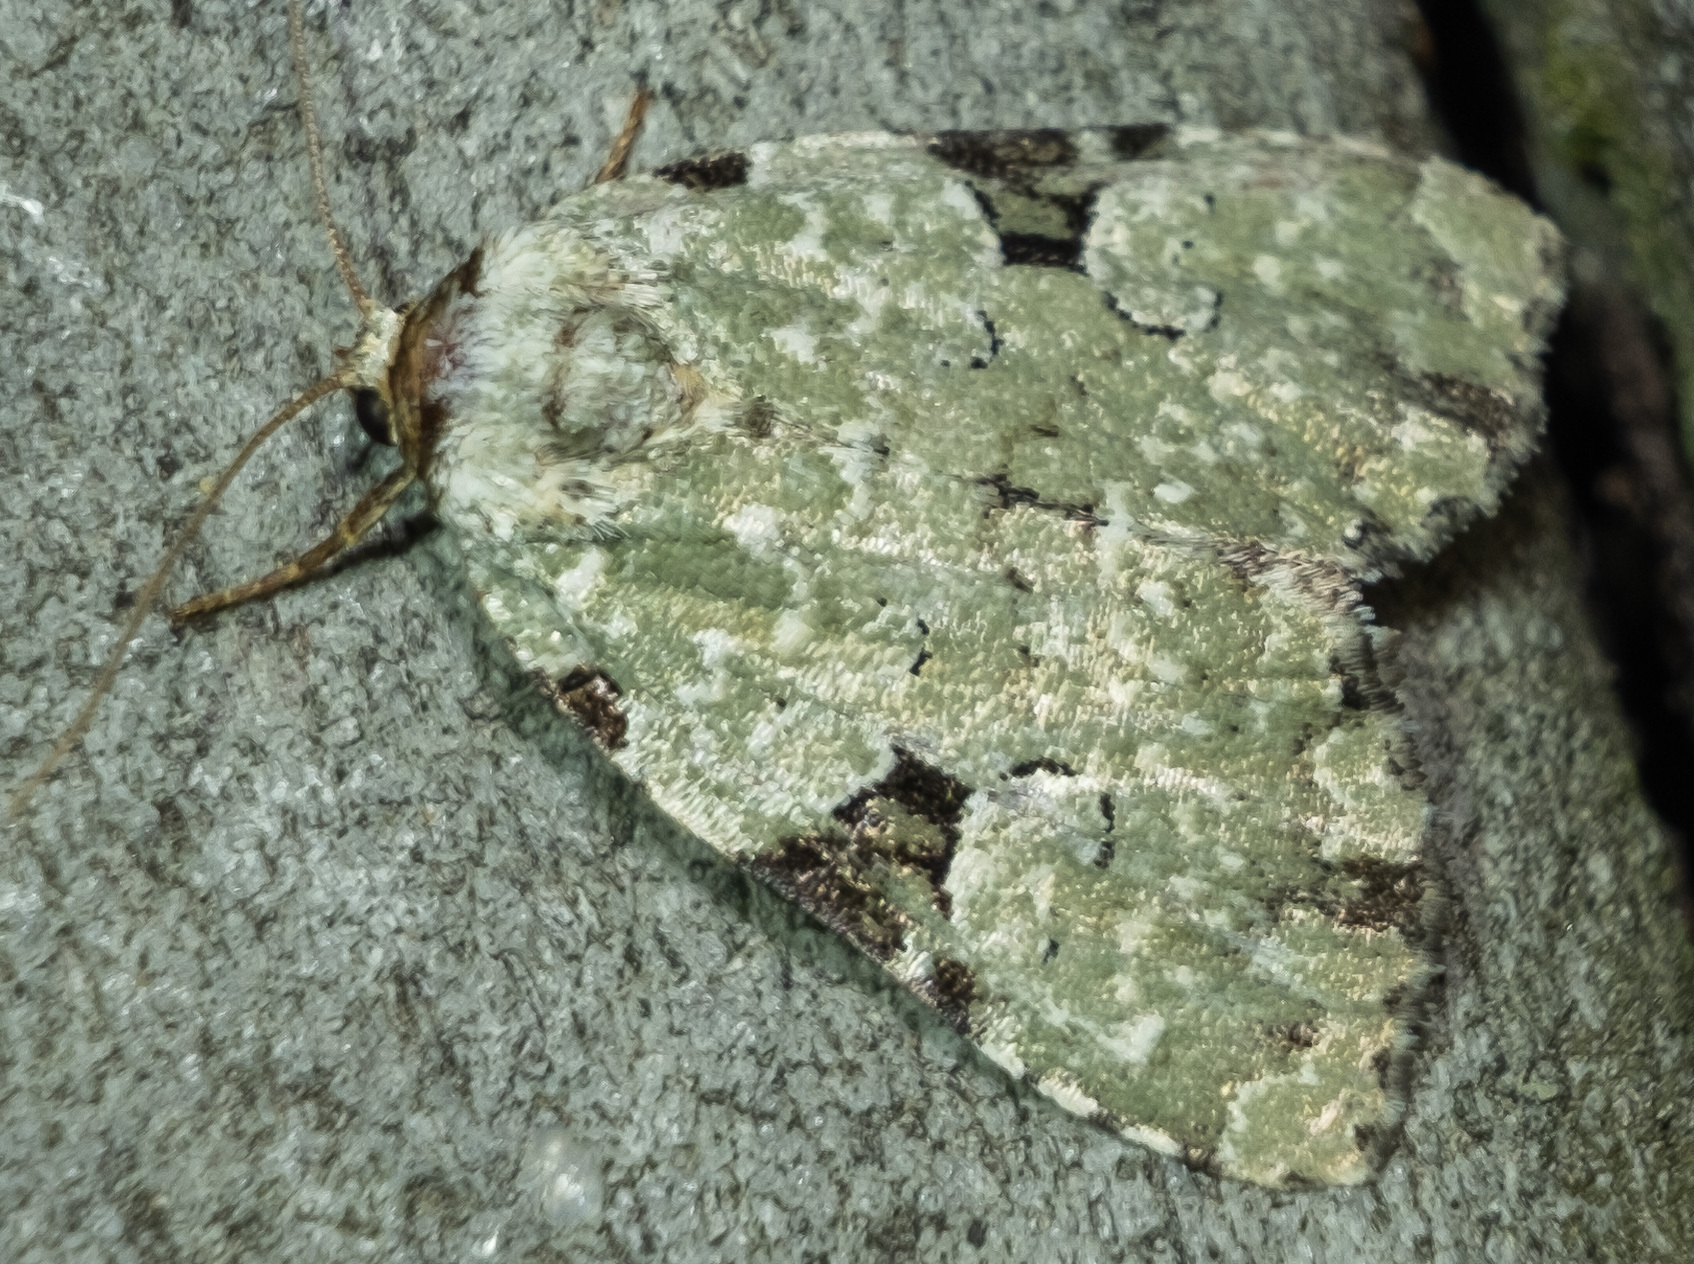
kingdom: Animalia
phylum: Arthropoda
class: Insecta
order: Lepidoptera
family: Noctuidae
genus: Leuconycta
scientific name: Leuconycta diphteroides
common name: Green leuconycta moth
